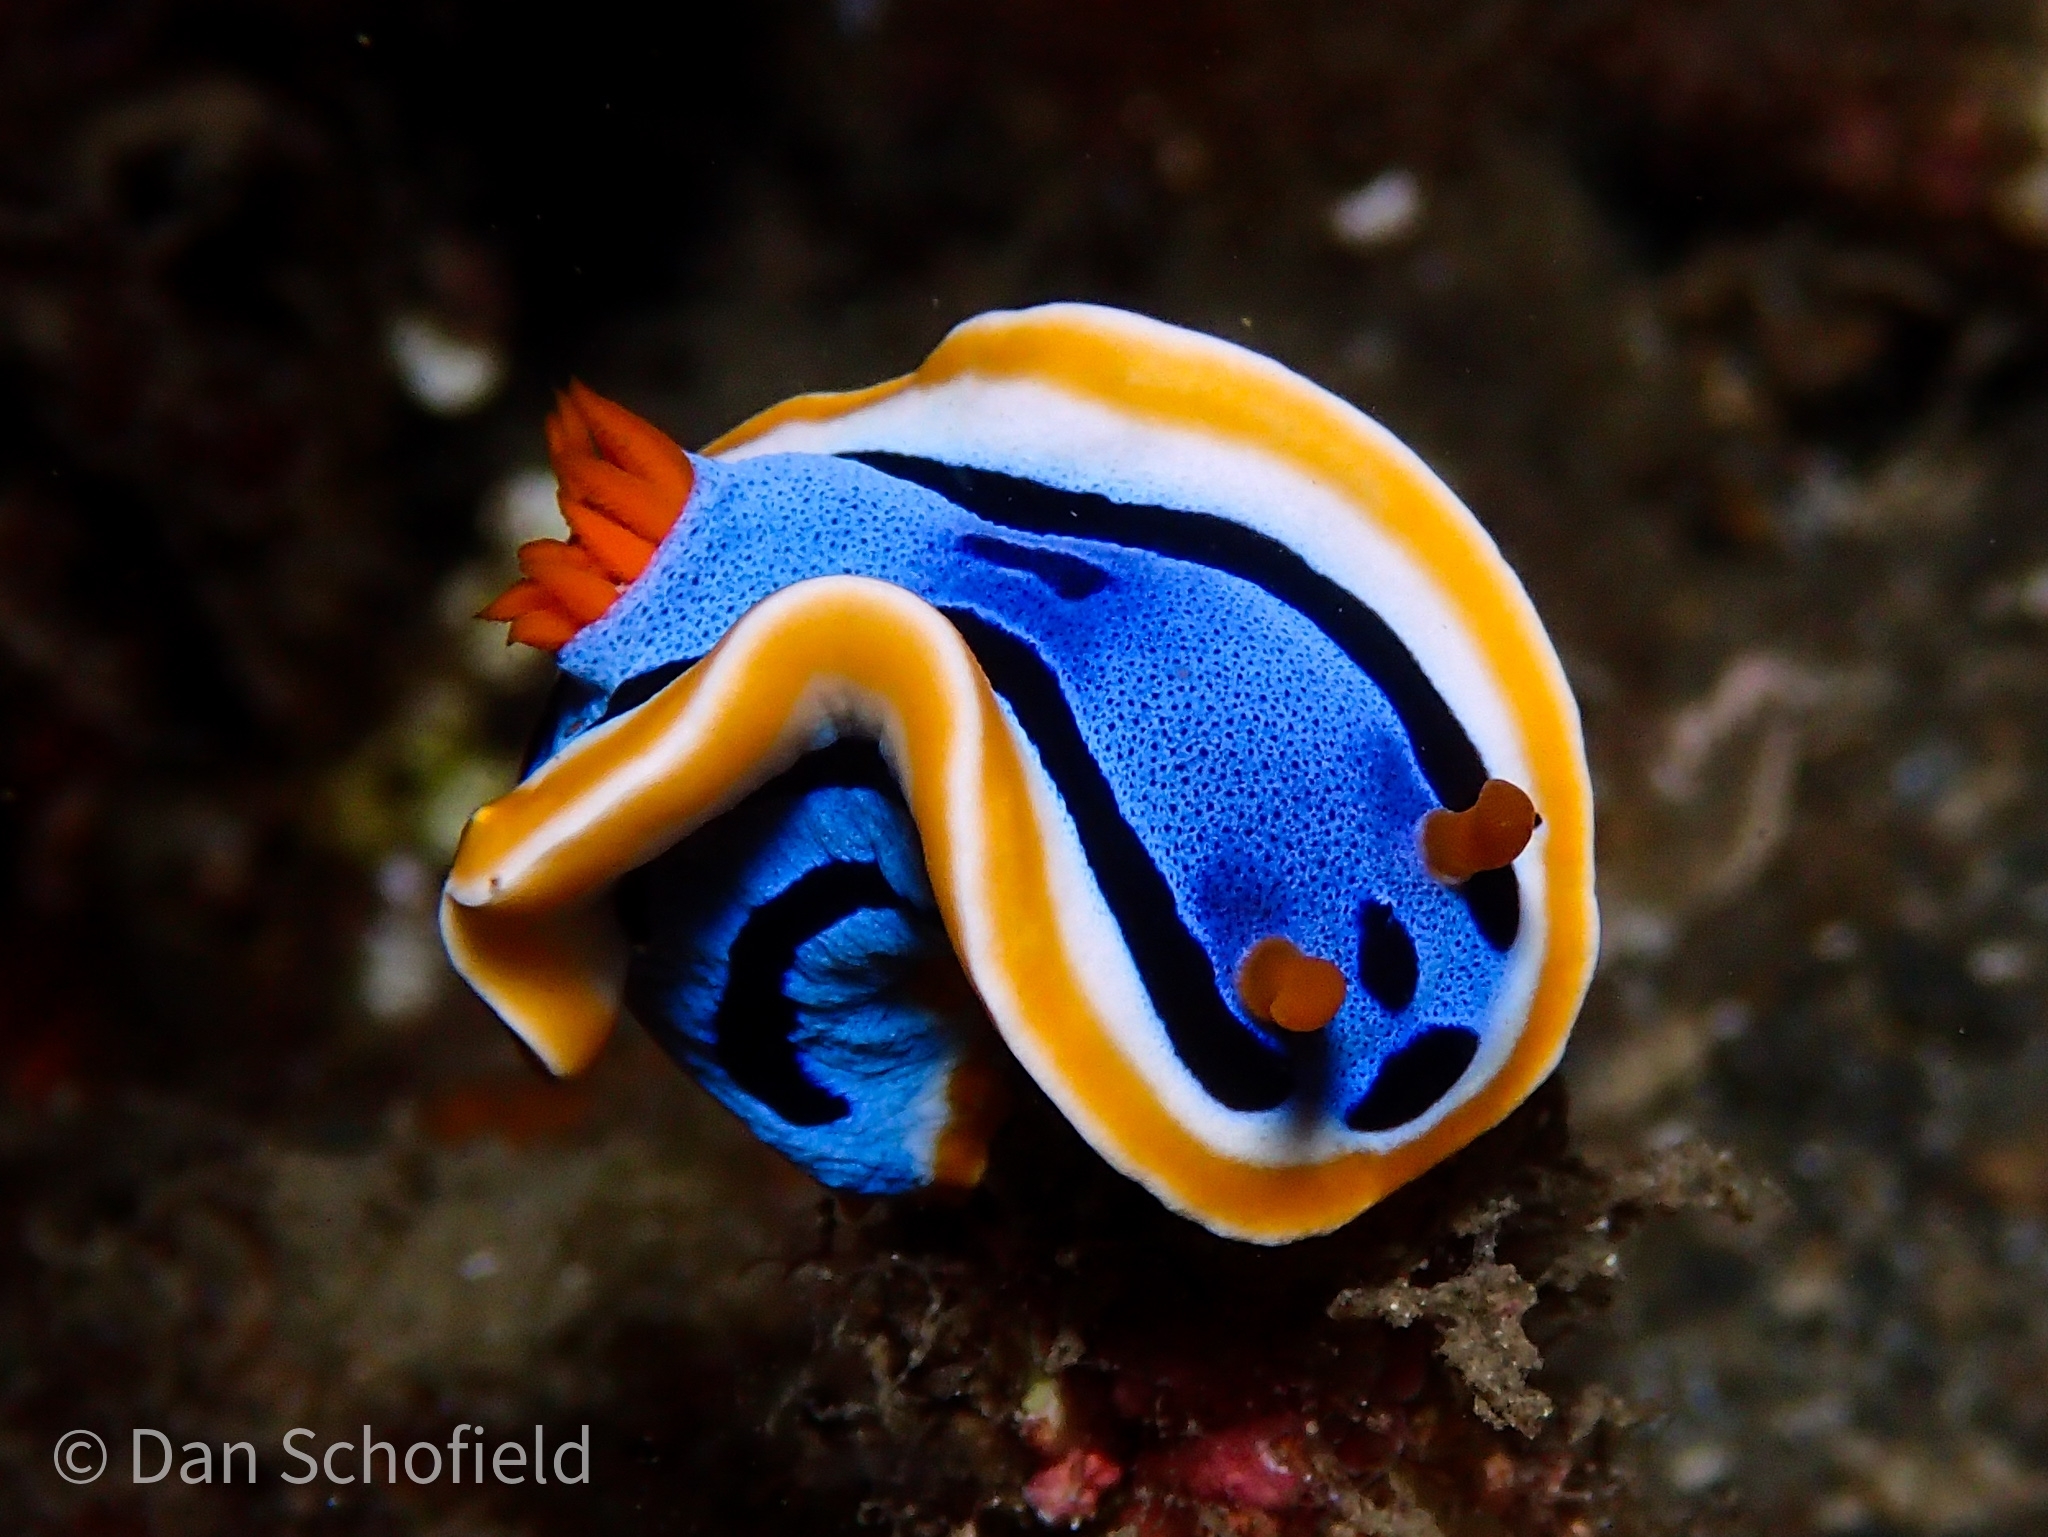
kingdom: Animalia
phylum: Mollusca
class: Gastropoda
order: Nudibranchia
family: Chromodorididae
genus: Chromodoris
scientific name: Chromodoris annae
